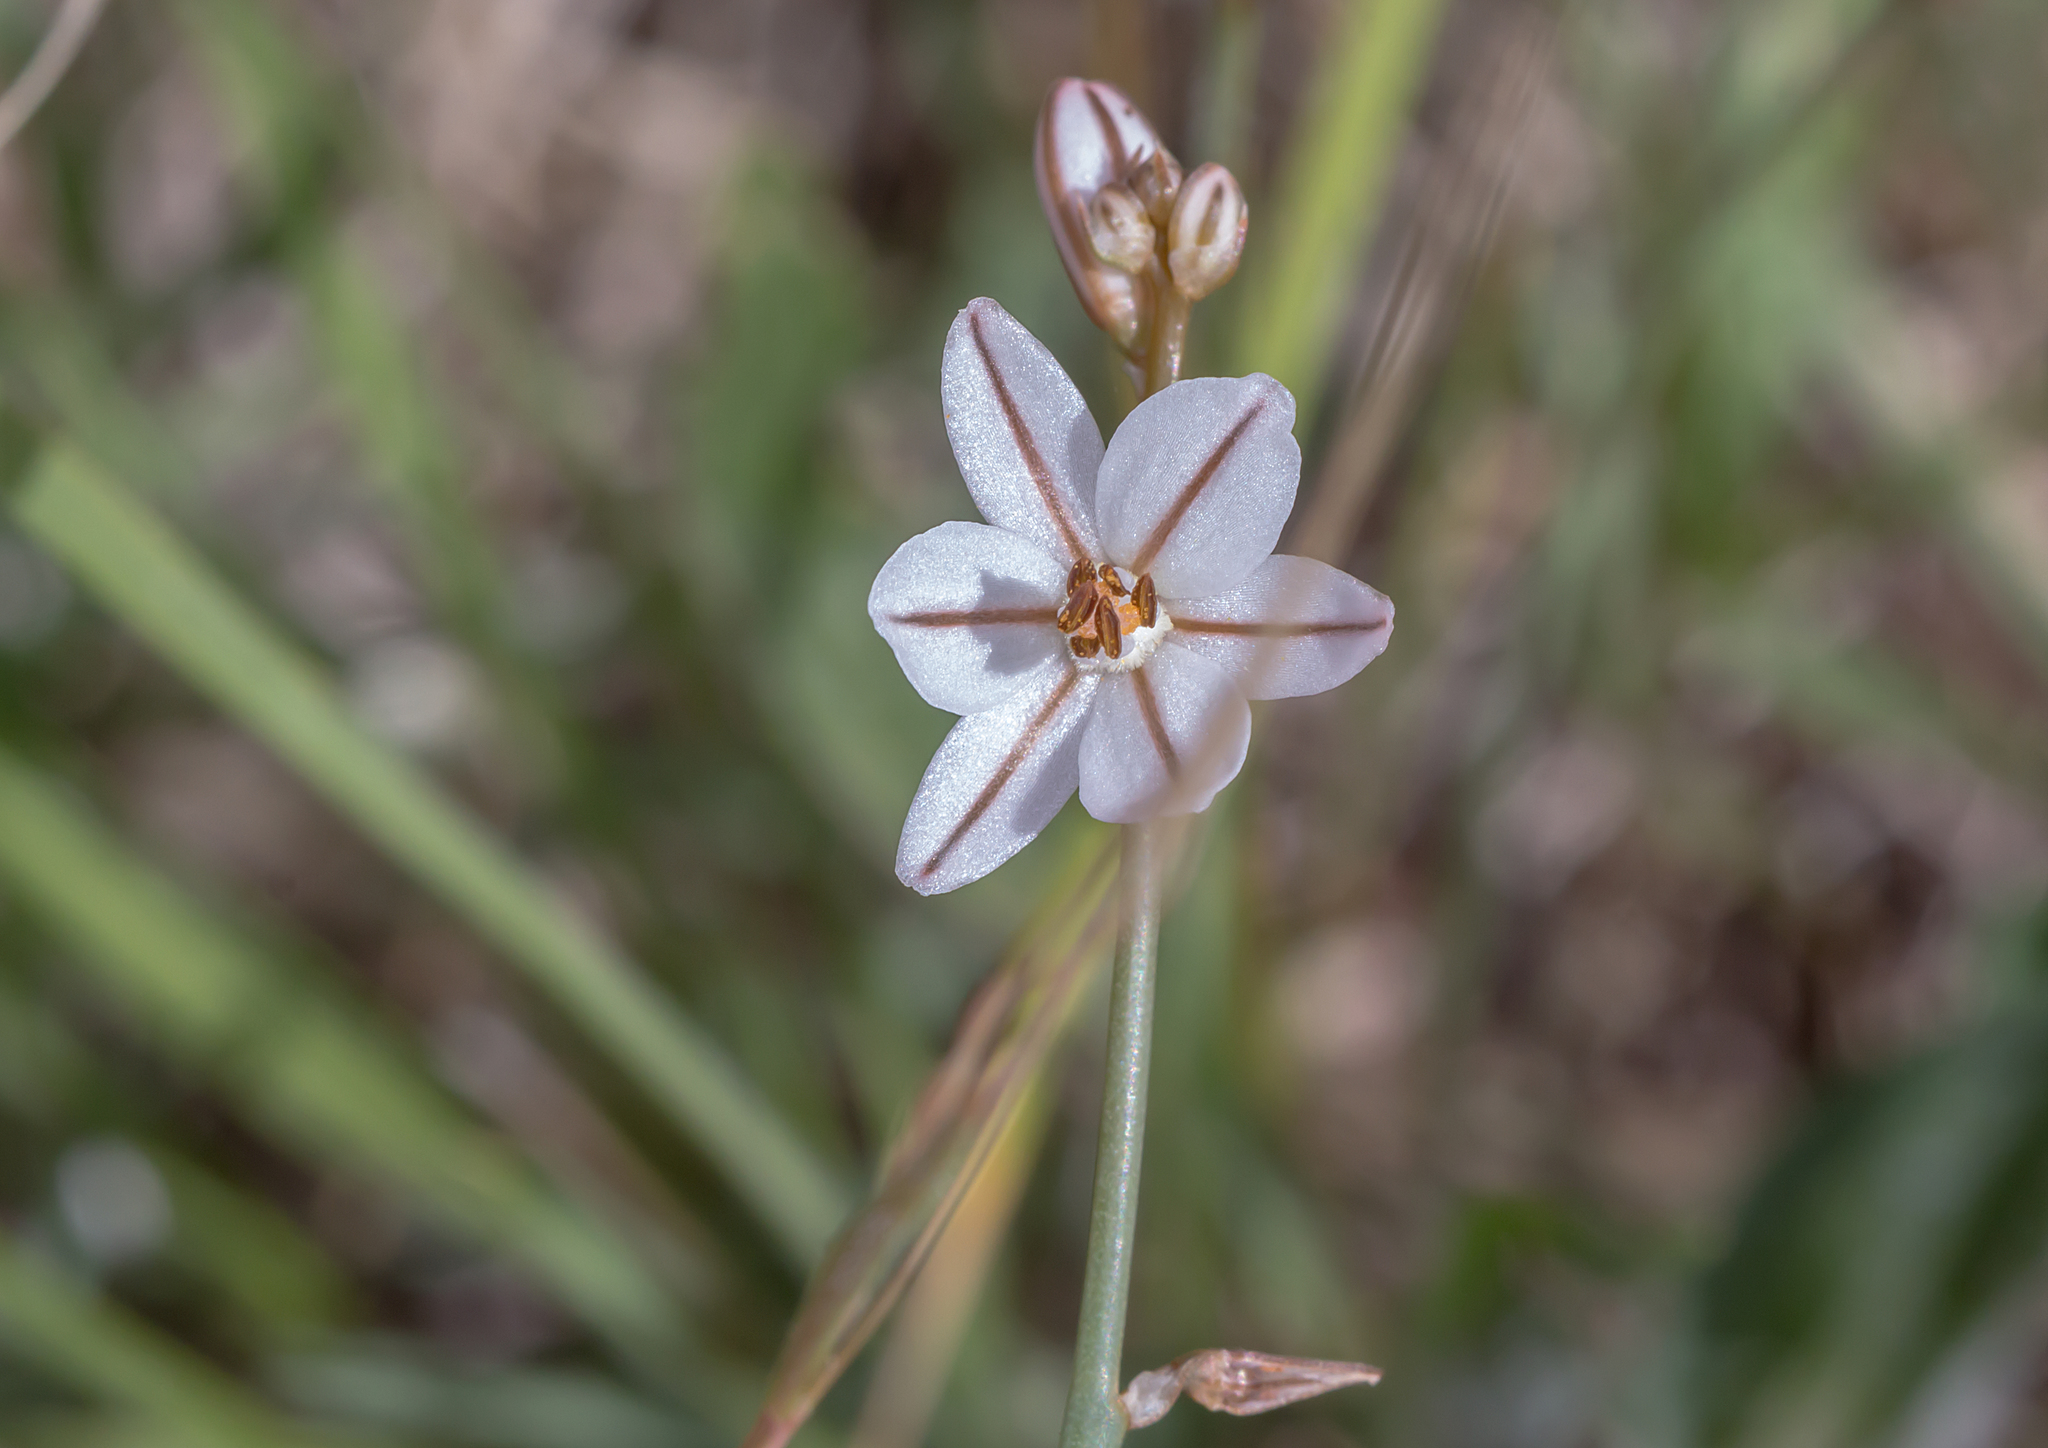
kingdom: Plantae
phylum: Tracheophyta
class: Liliopsida
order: Asparagales
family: Asphodelaceae
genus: Asphodelus
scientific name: Asphodelus fistulosus
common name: Onionweed
